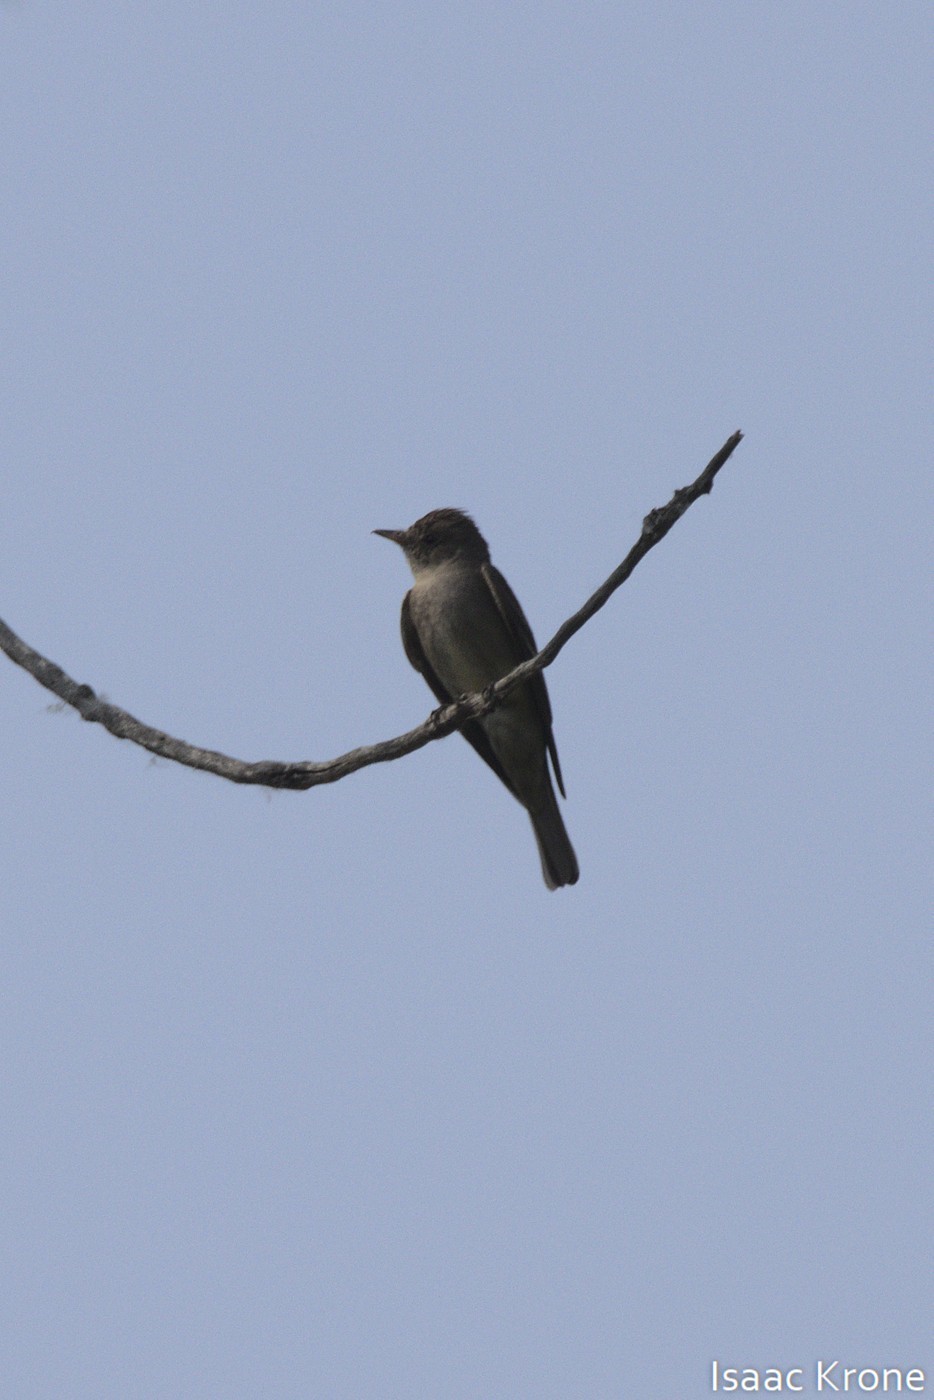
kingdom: Animalia
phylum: Chordata
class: Aves
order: Passeriformes
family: Tyrannidae
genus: Contopus
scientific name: Contopus sordidulus
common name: Western wood-pewee
